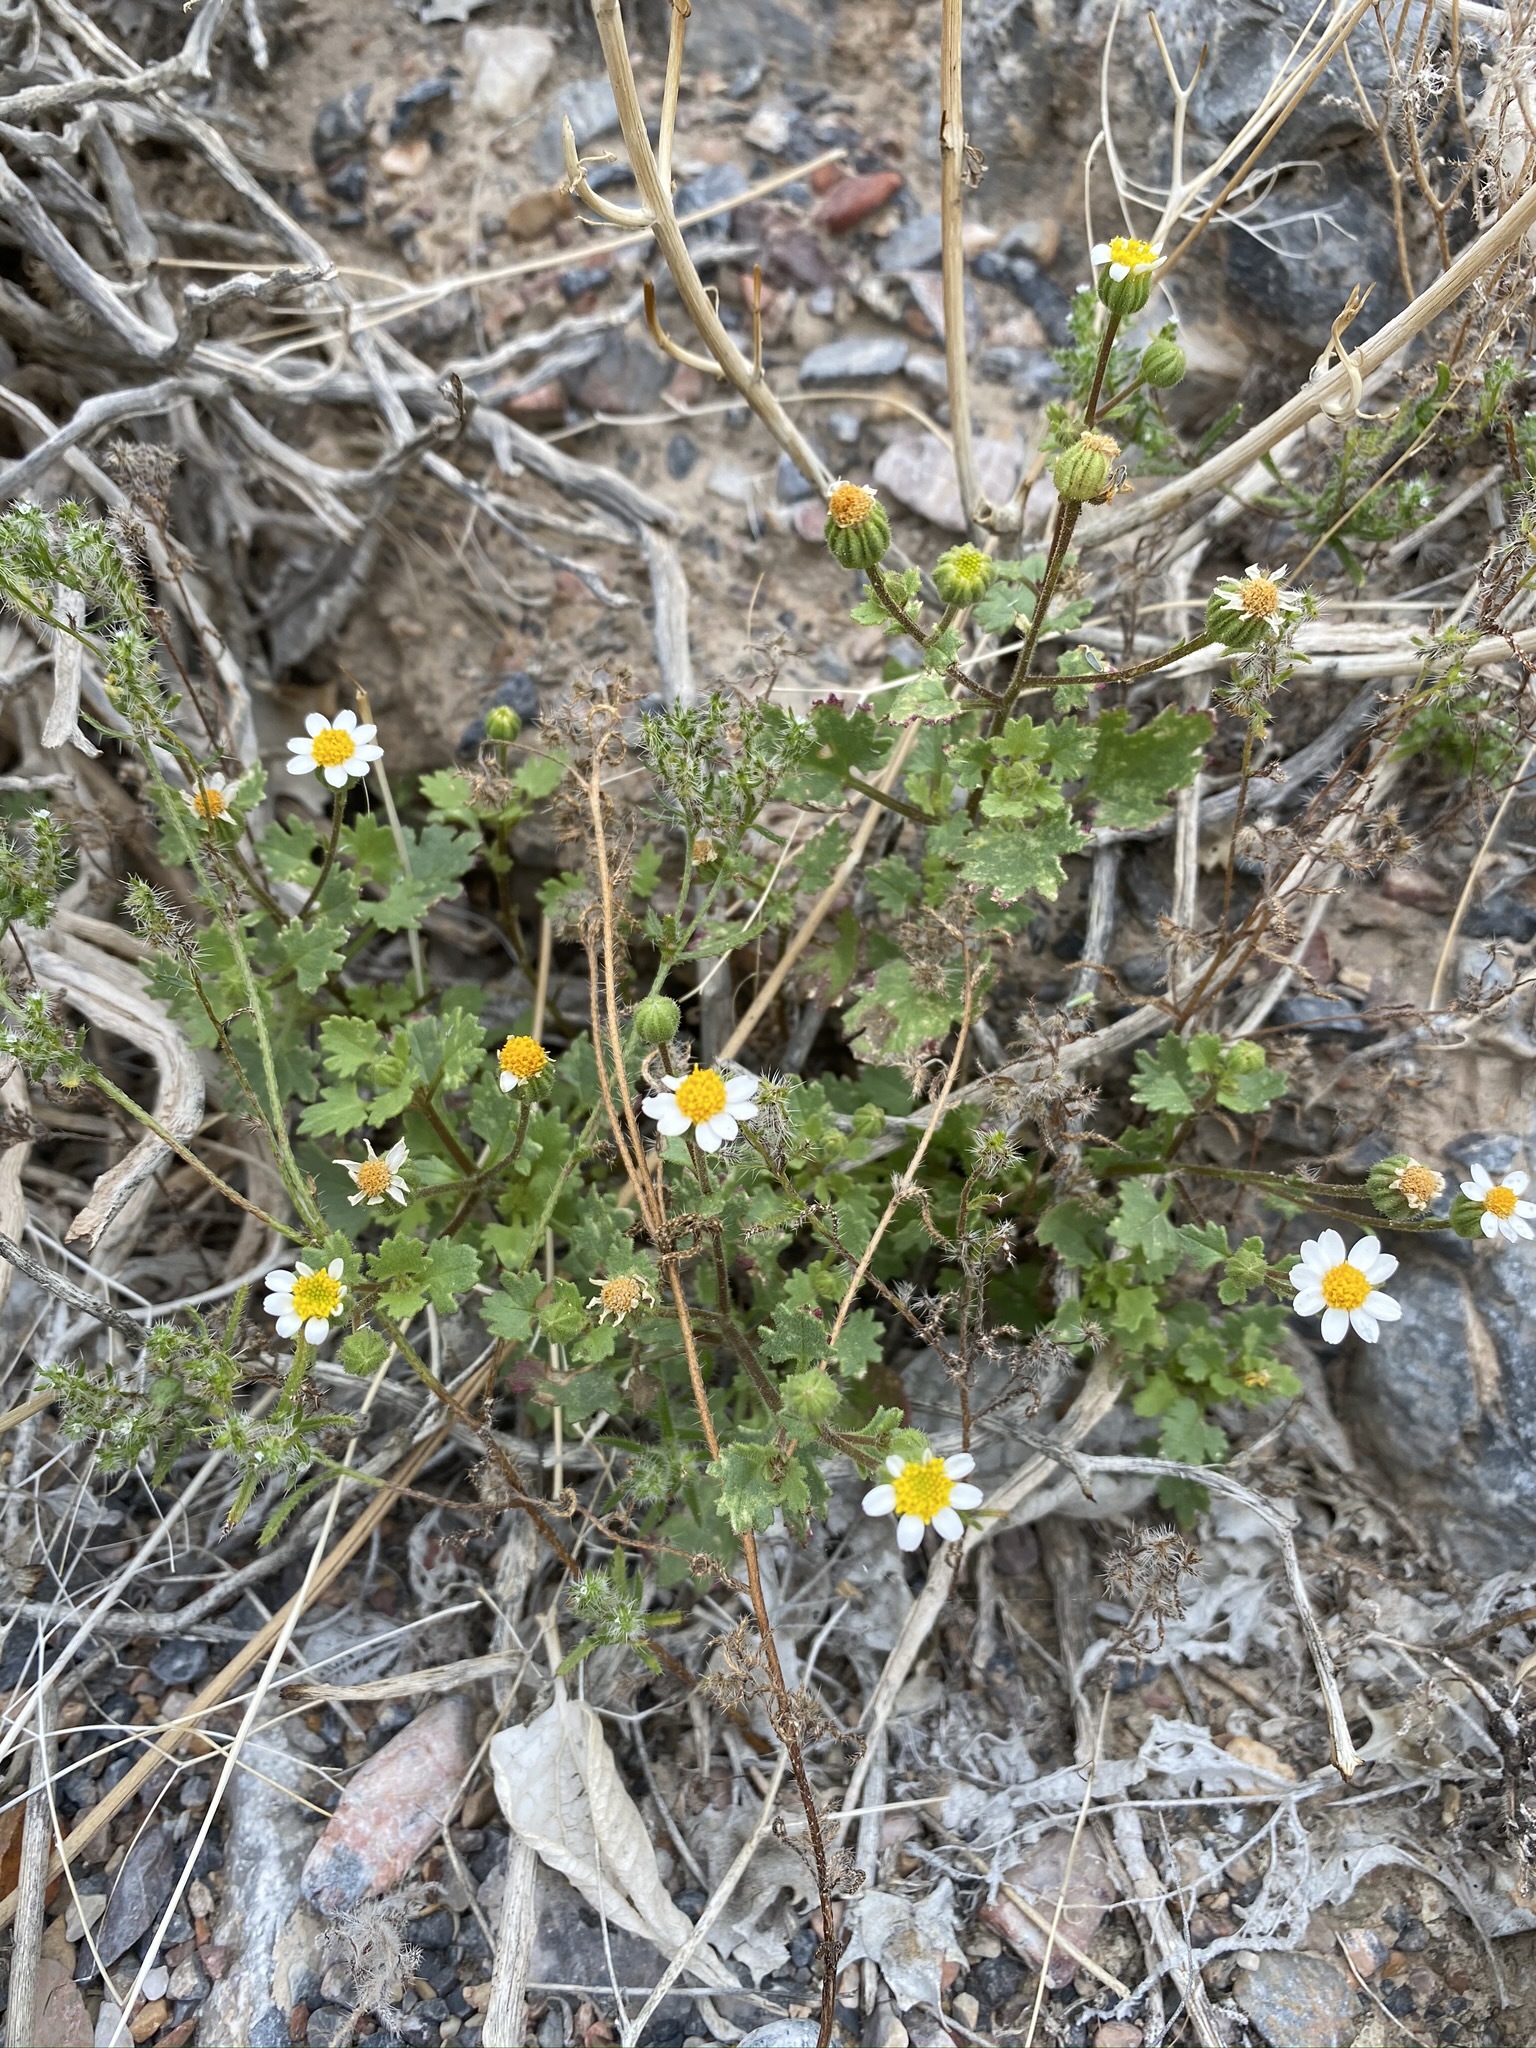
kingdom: Plantae
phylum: Tracheophyta
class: Magnoliopsida
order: Asterales
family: Asteraceae
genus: Laphamia
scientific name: Laphamia emoryi
